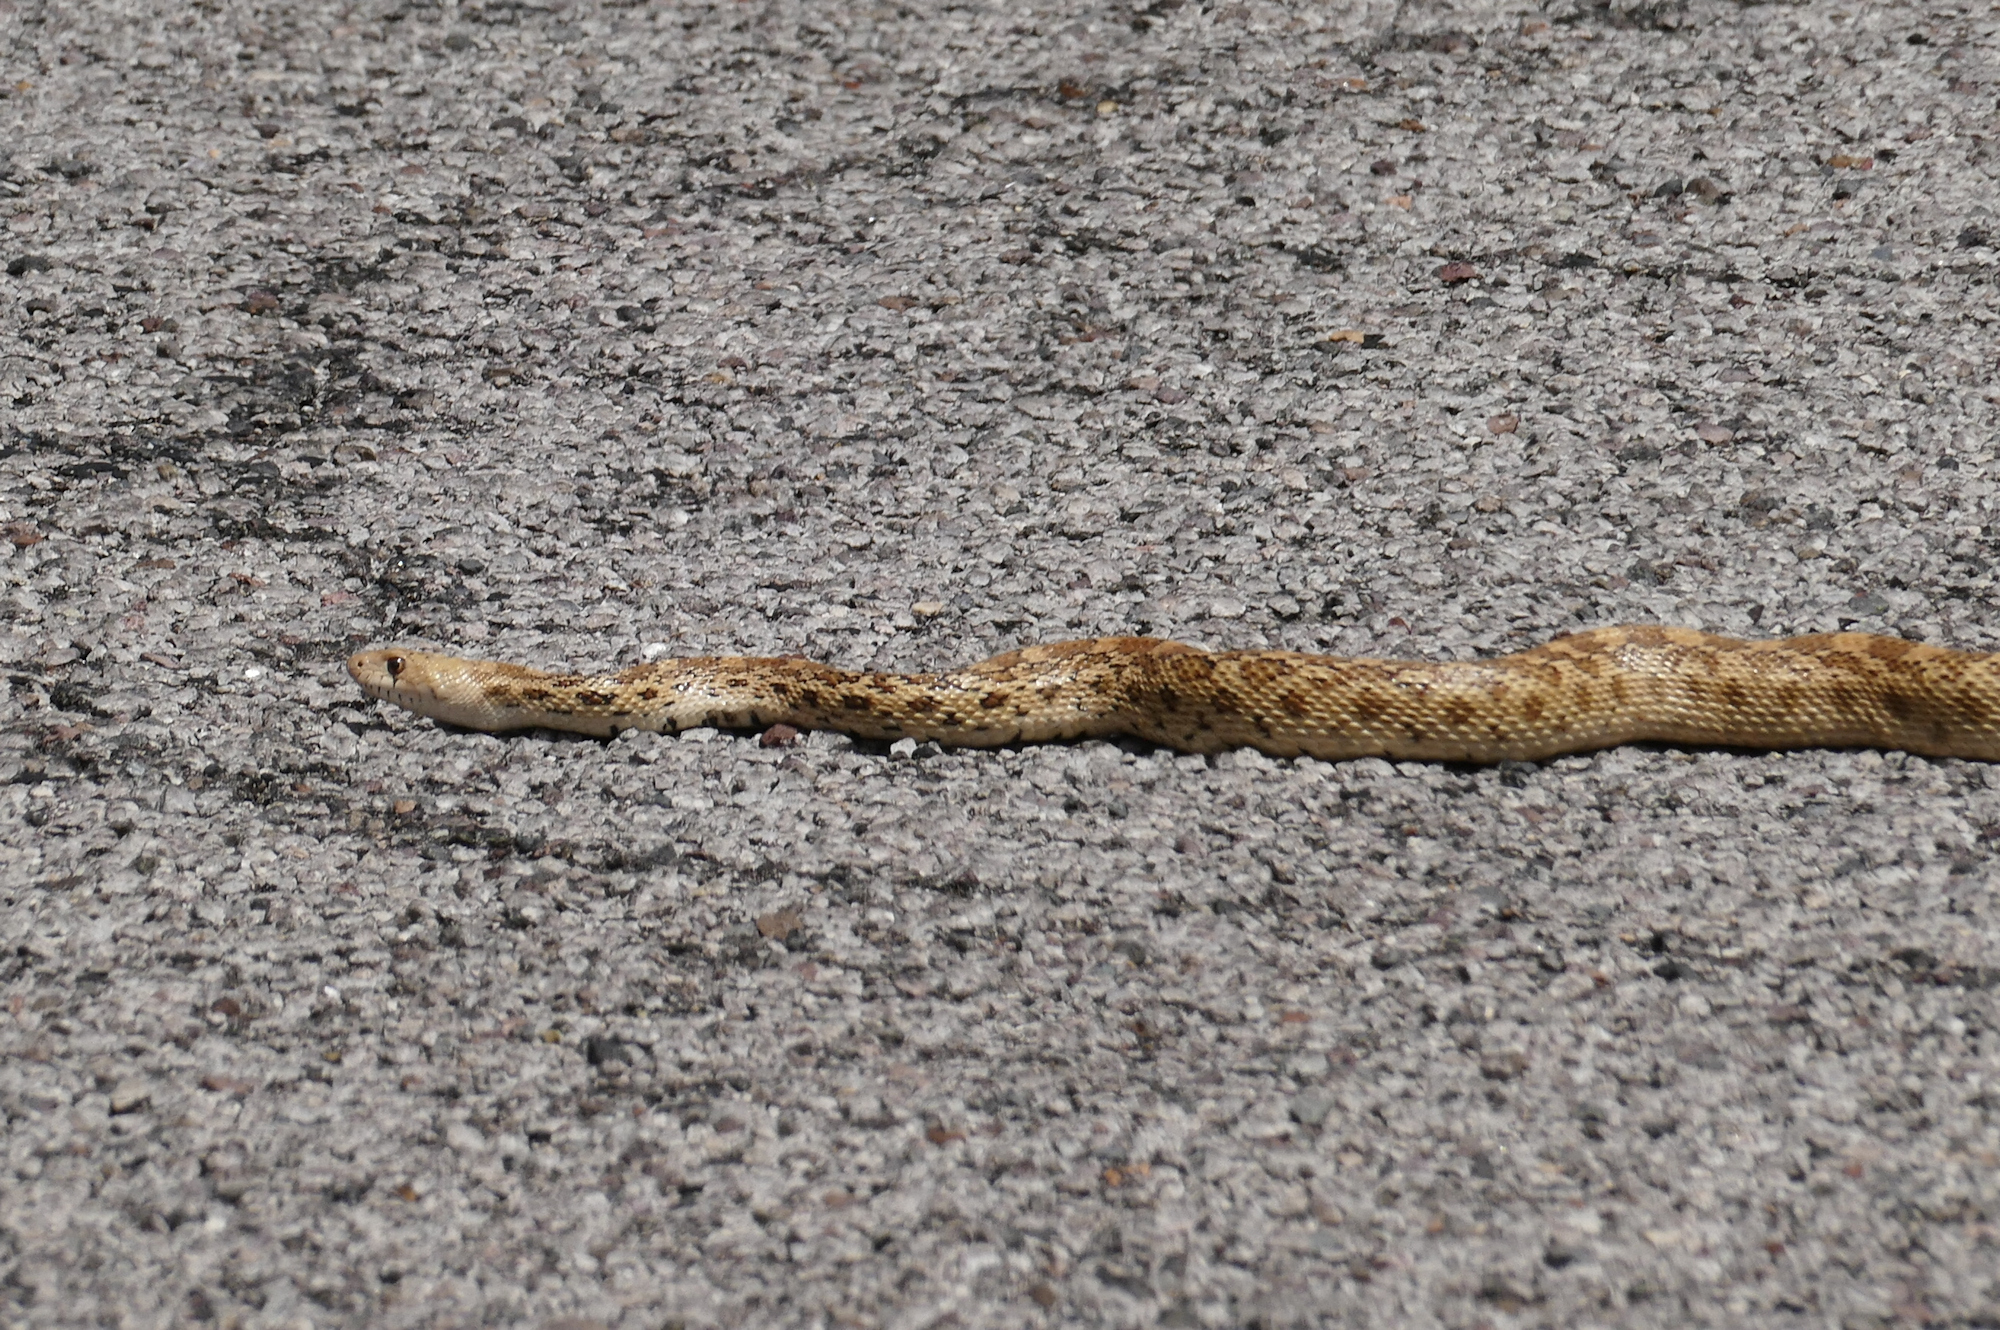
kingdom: Animalia
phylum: Chordata
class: Squamata
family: Colubridae
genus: Pituophis
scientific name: Pituophis catenifer
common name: Gopher snake
